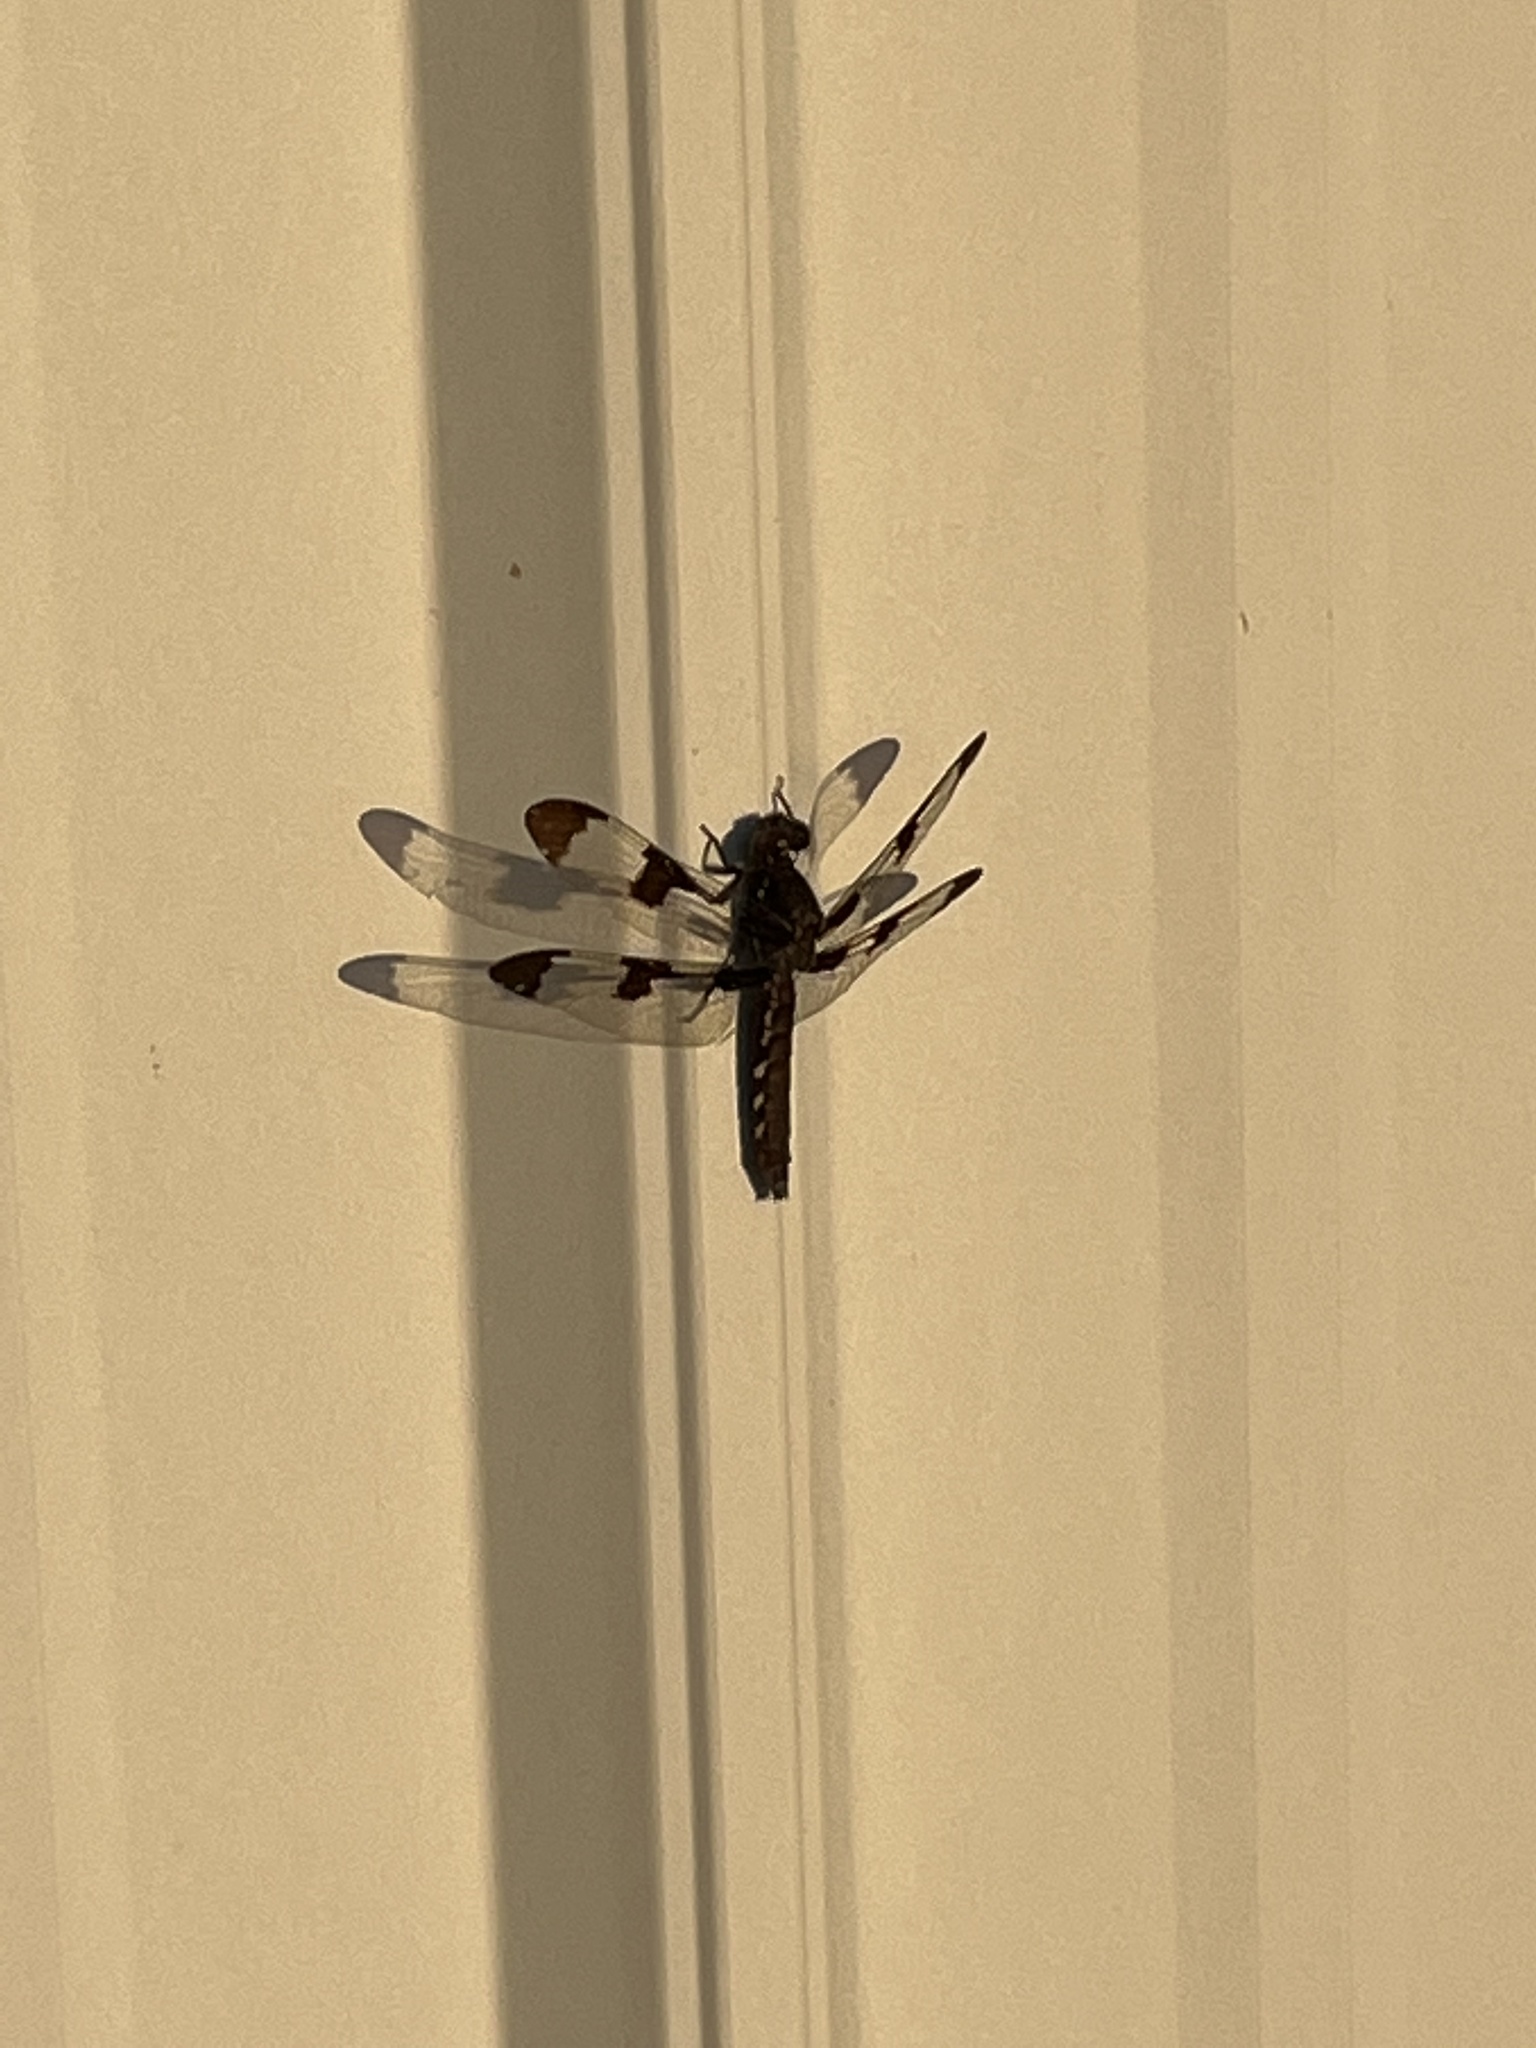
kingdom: Animalia
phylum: Arthropoda
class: Insecta
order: Odonata
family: Libellulidae
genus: Plathemis
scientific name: Plathemis lydia
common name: Common whitetail
